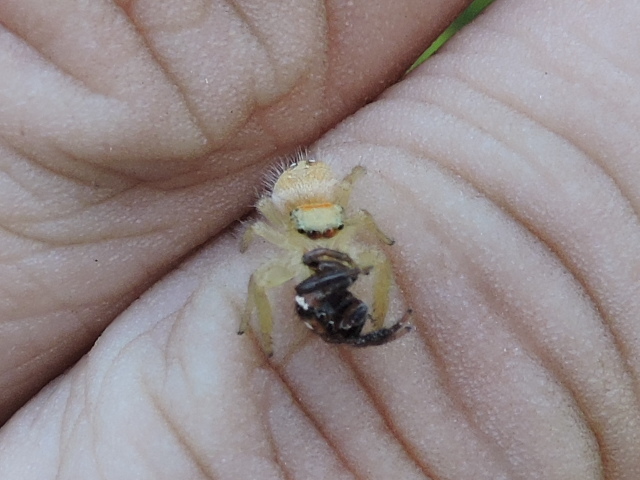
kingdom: Animalia
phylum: Arthropoda
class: Arachnida
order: Araneae
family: Salticidae
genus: Phidippus
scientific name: Phidippus cardinalis
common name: Cardinal jumper
